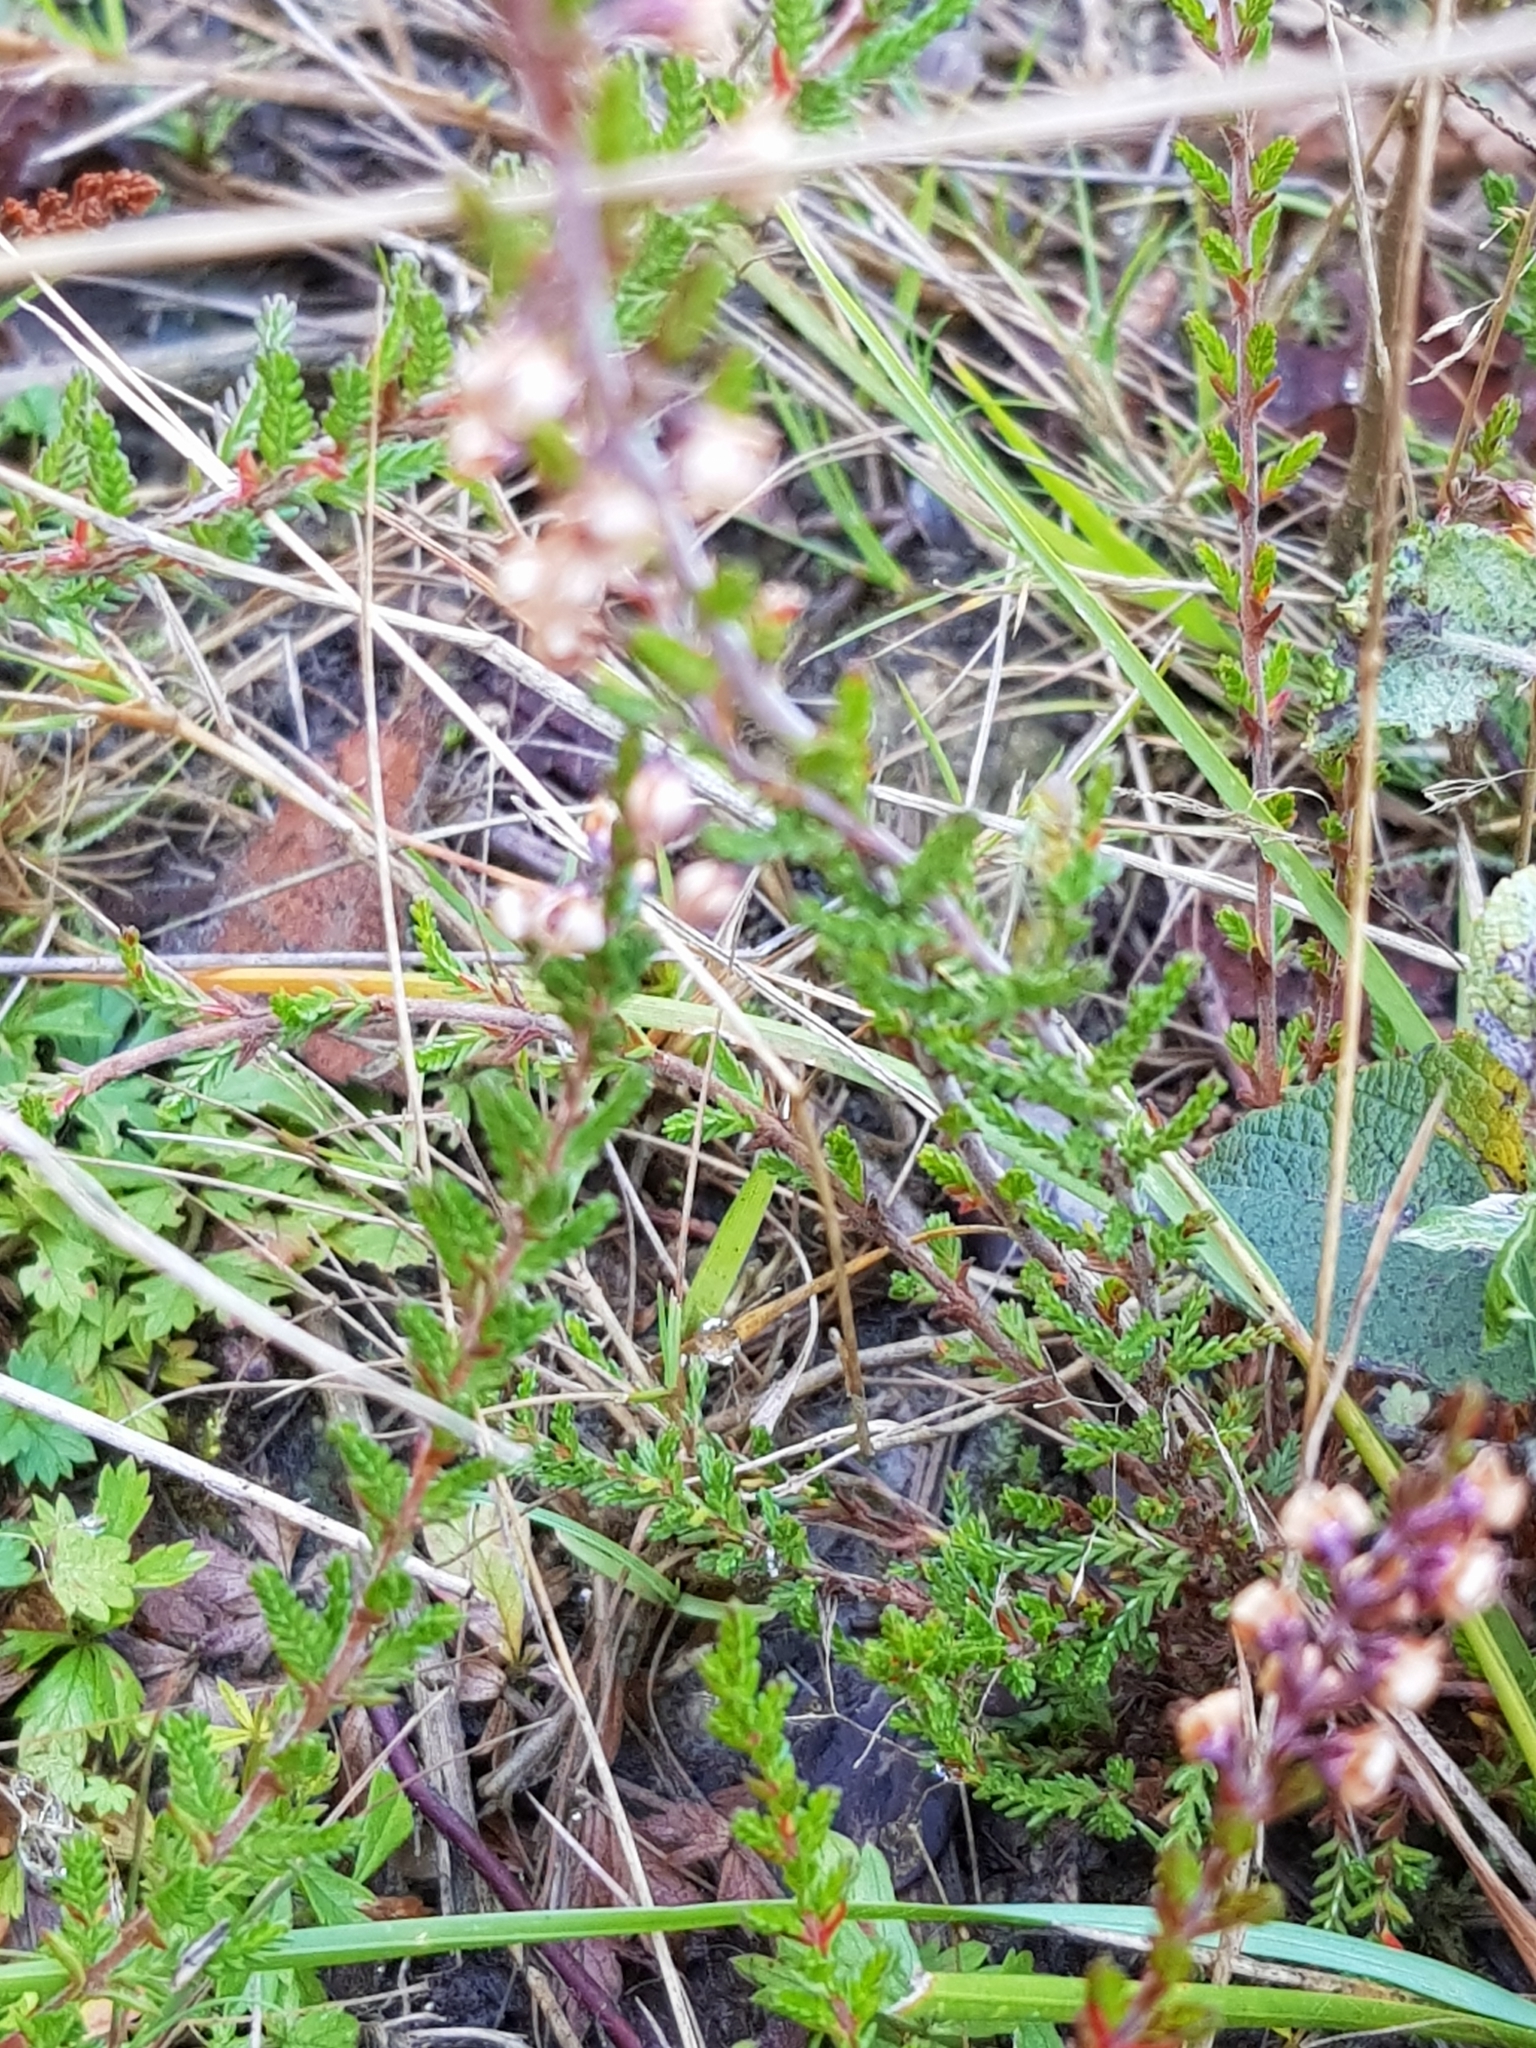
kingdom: Animalia
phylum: Arthropoda
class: Insecta
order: Hemiptera
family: Cicadellidae
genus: Cicadella
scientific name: Cicadella viridis
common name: Leafhopper
